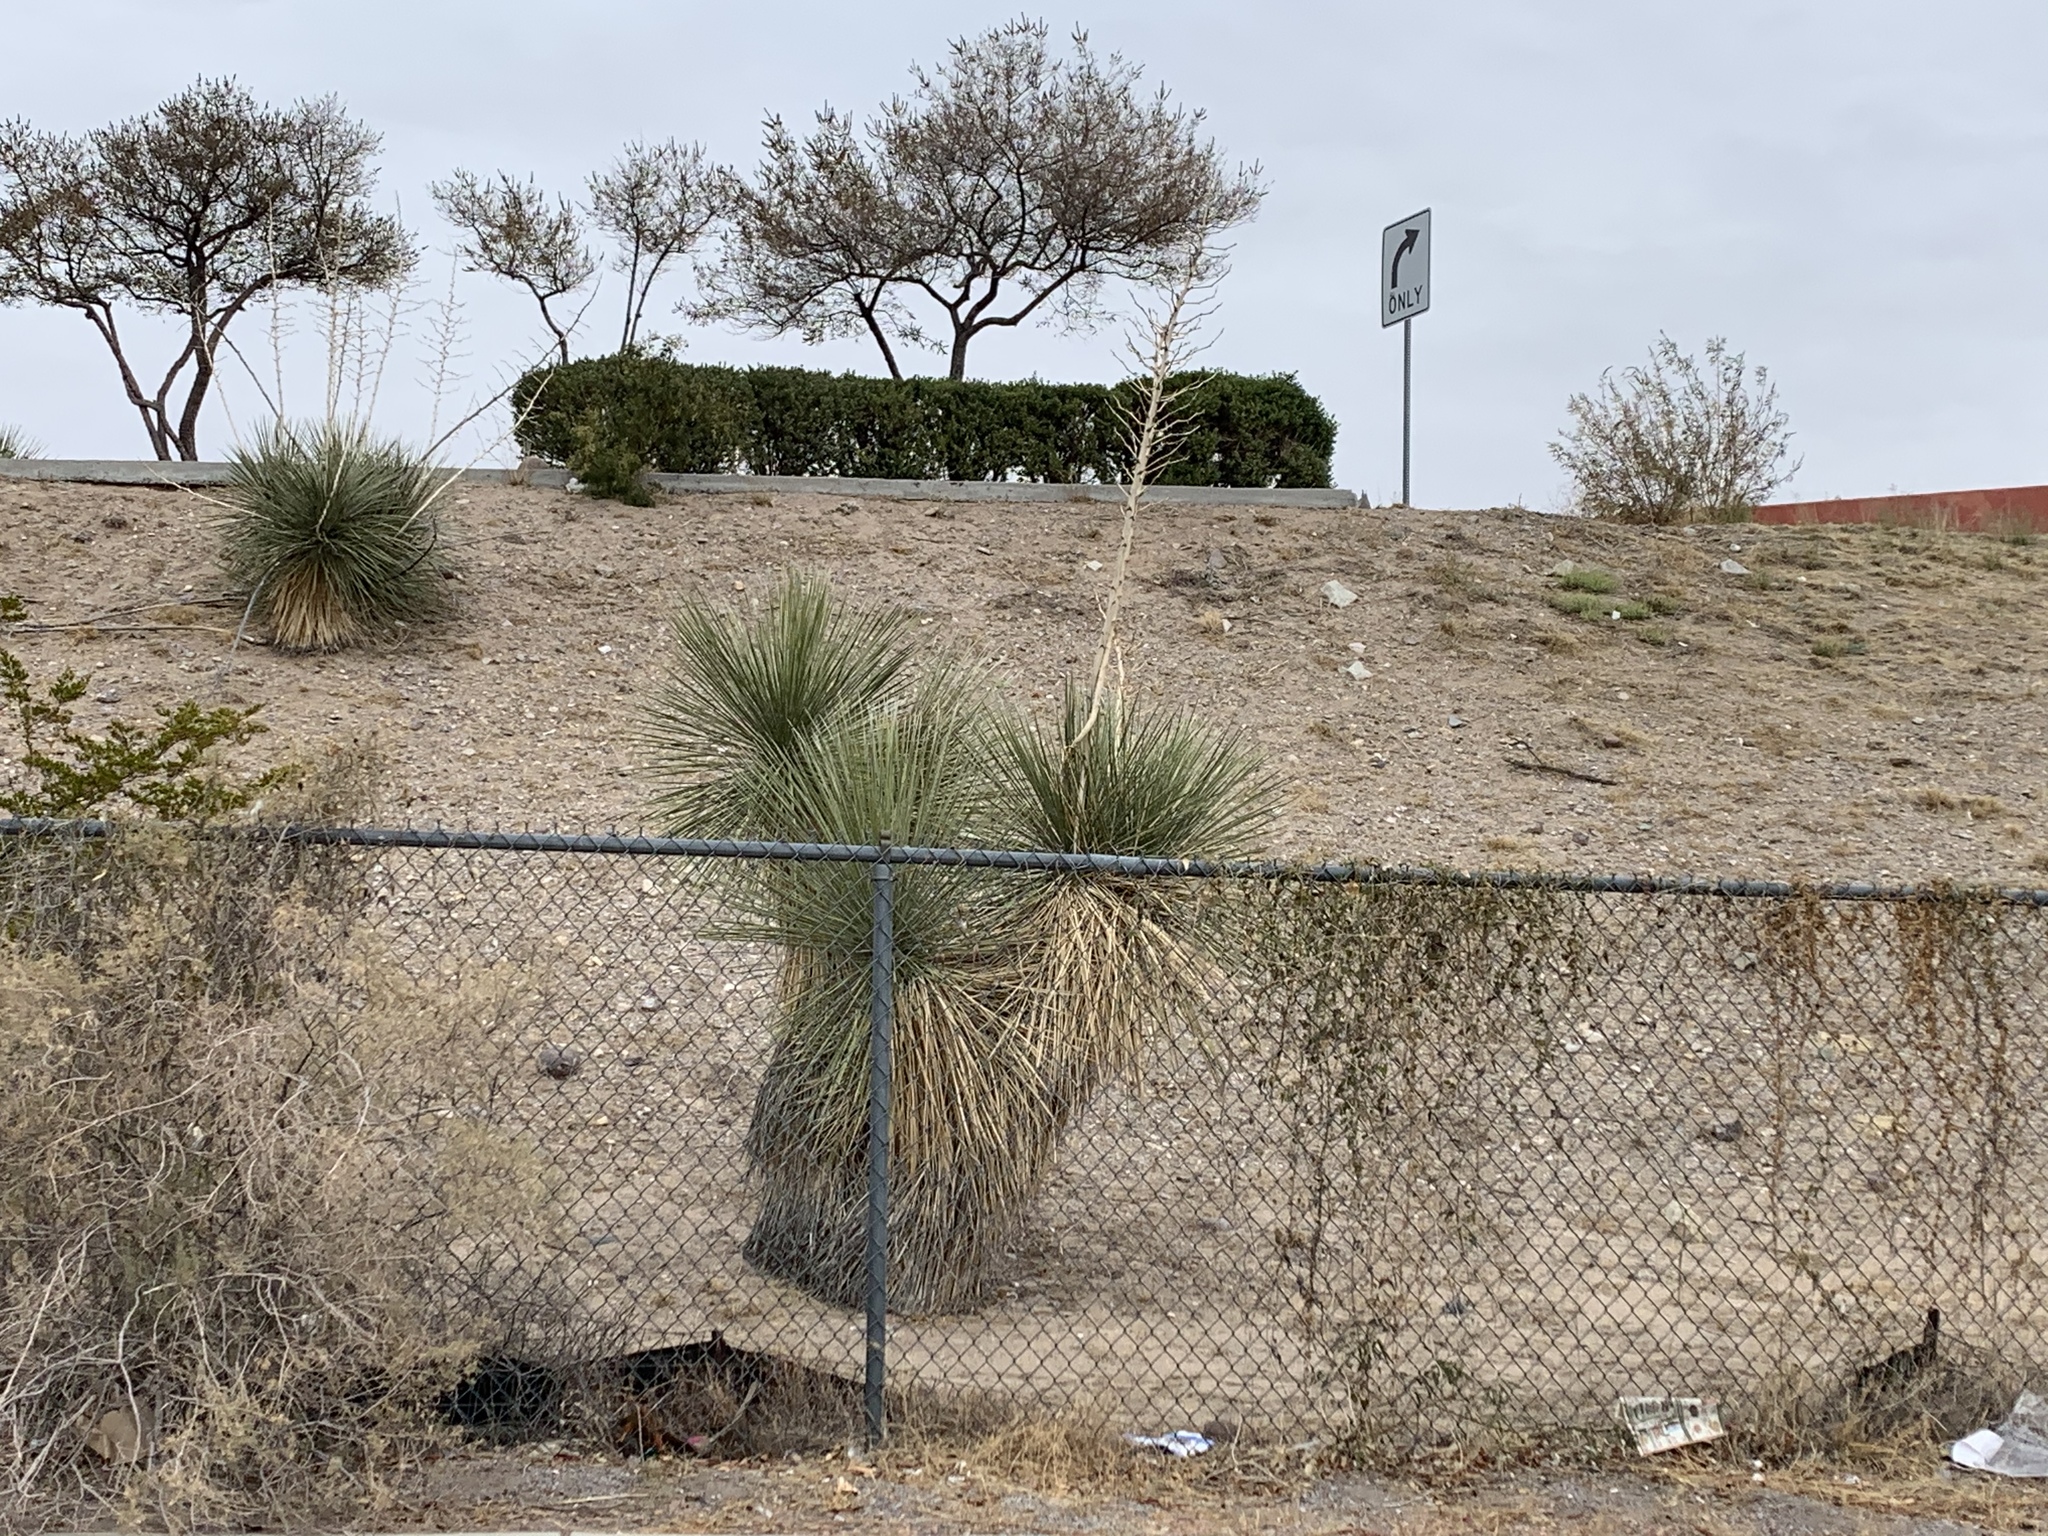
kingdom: Plantae
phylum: Tracheophyta
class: Liliopsida
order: Asparagales
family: Asparagaceae
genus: Yucca
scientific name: Yucca elata
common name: Palmella
